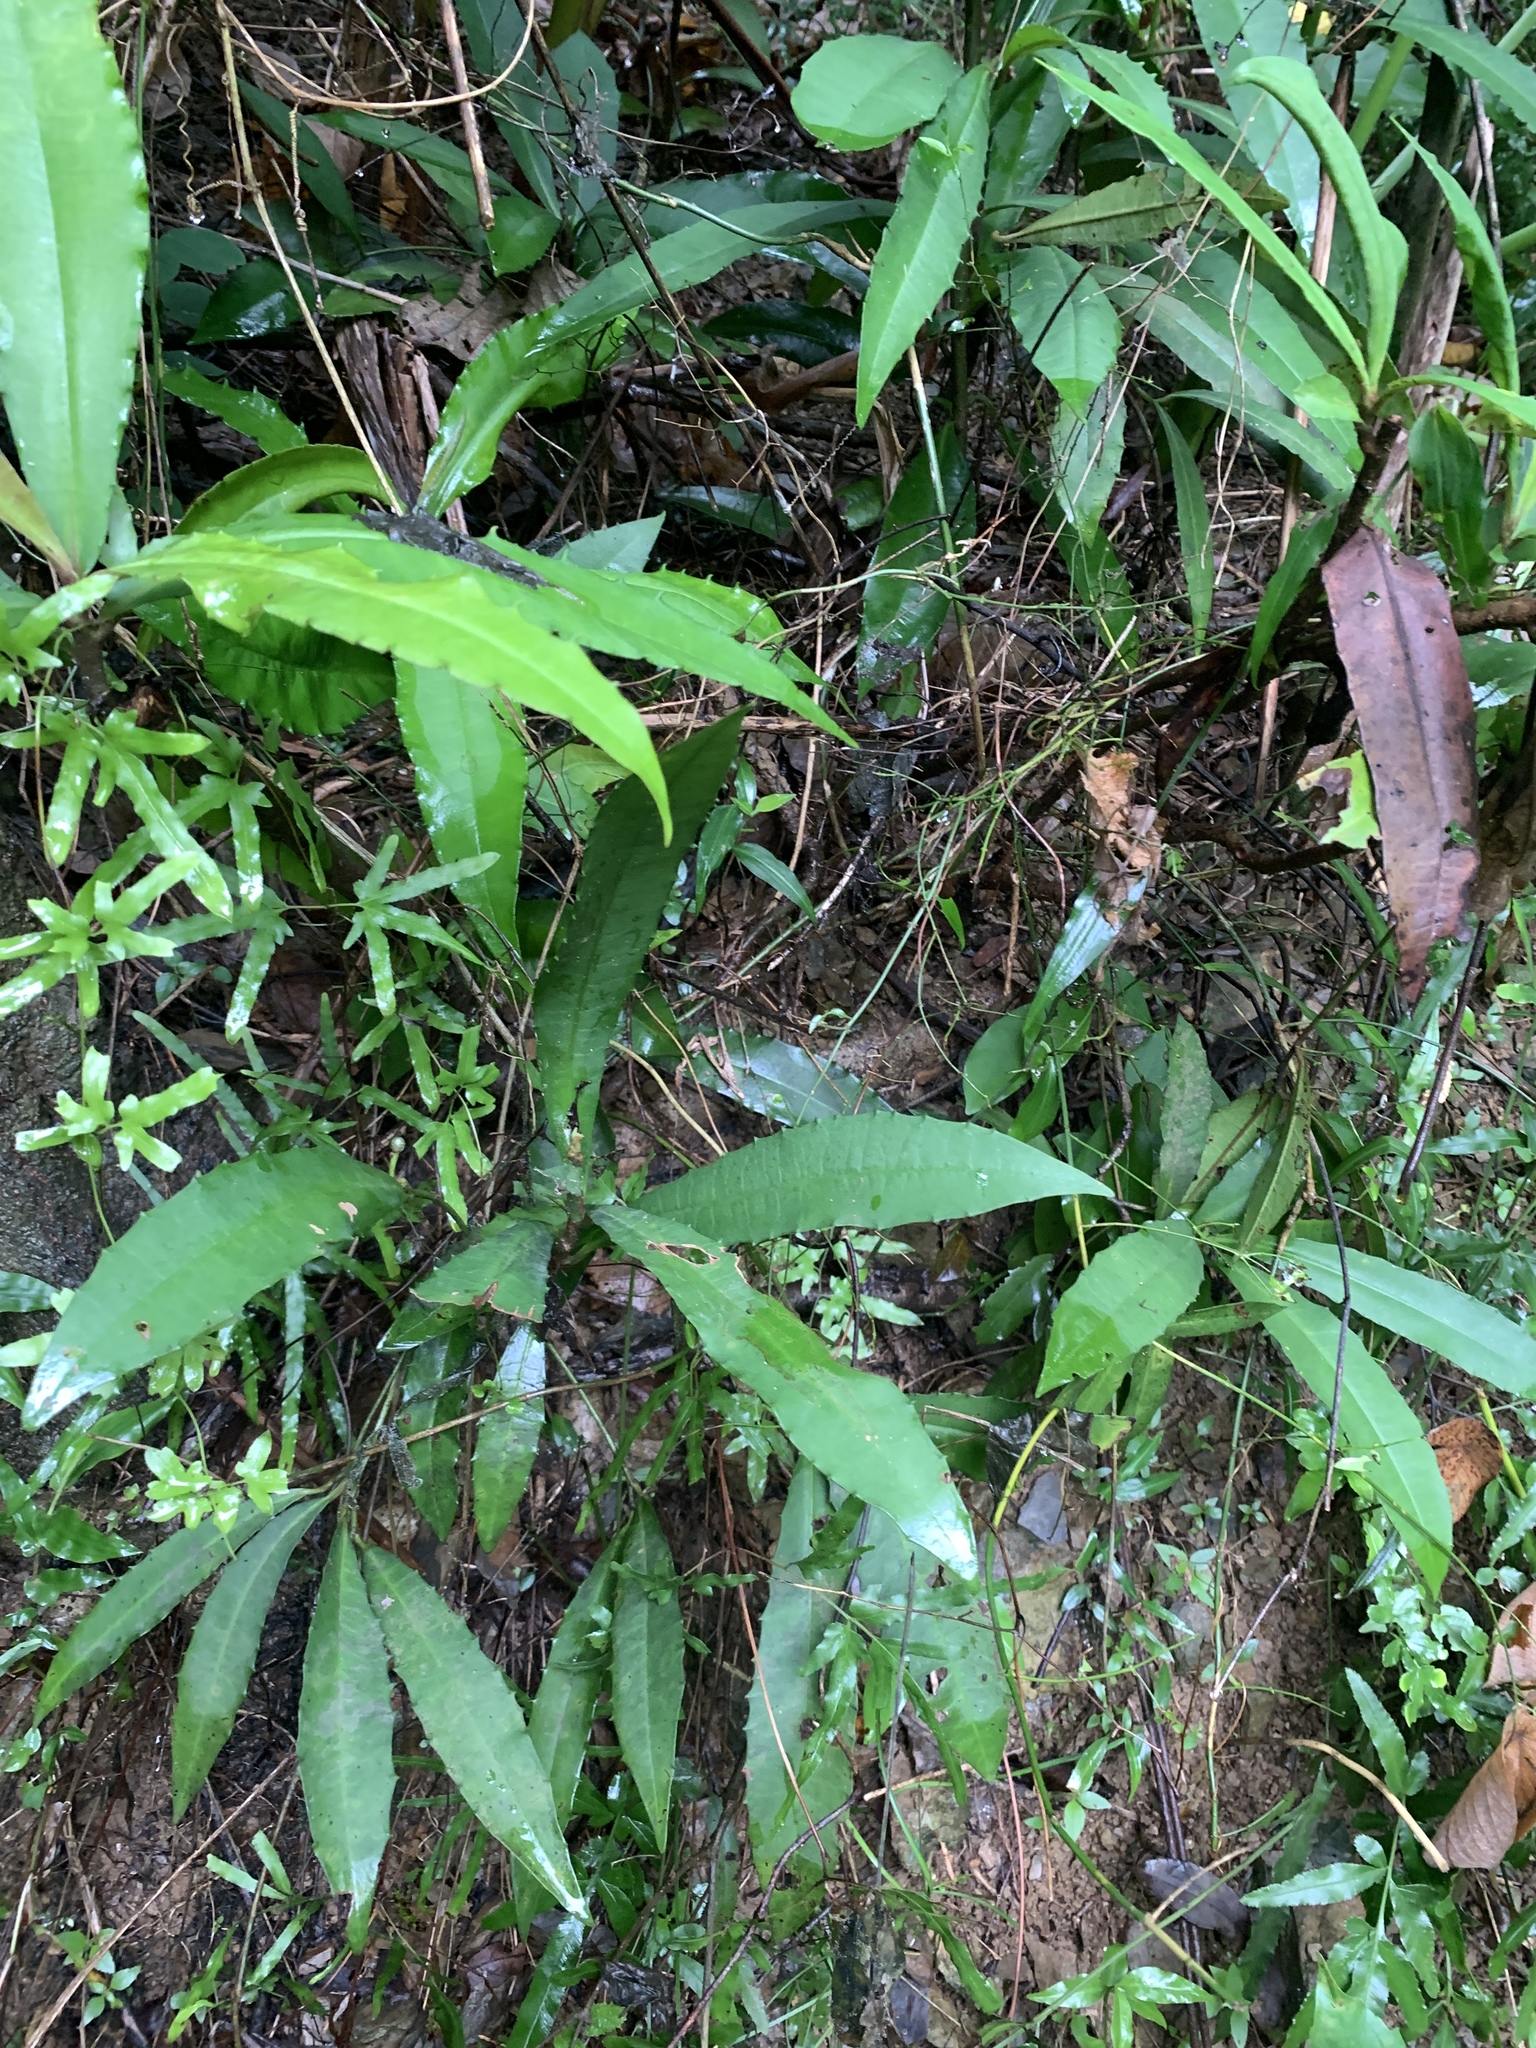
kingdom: Plantae
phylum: Tracheophyta
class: Magnoliopsida
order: Ericales
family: Primulaceae
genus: Ardisia
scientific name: Ardisia cornudentata
